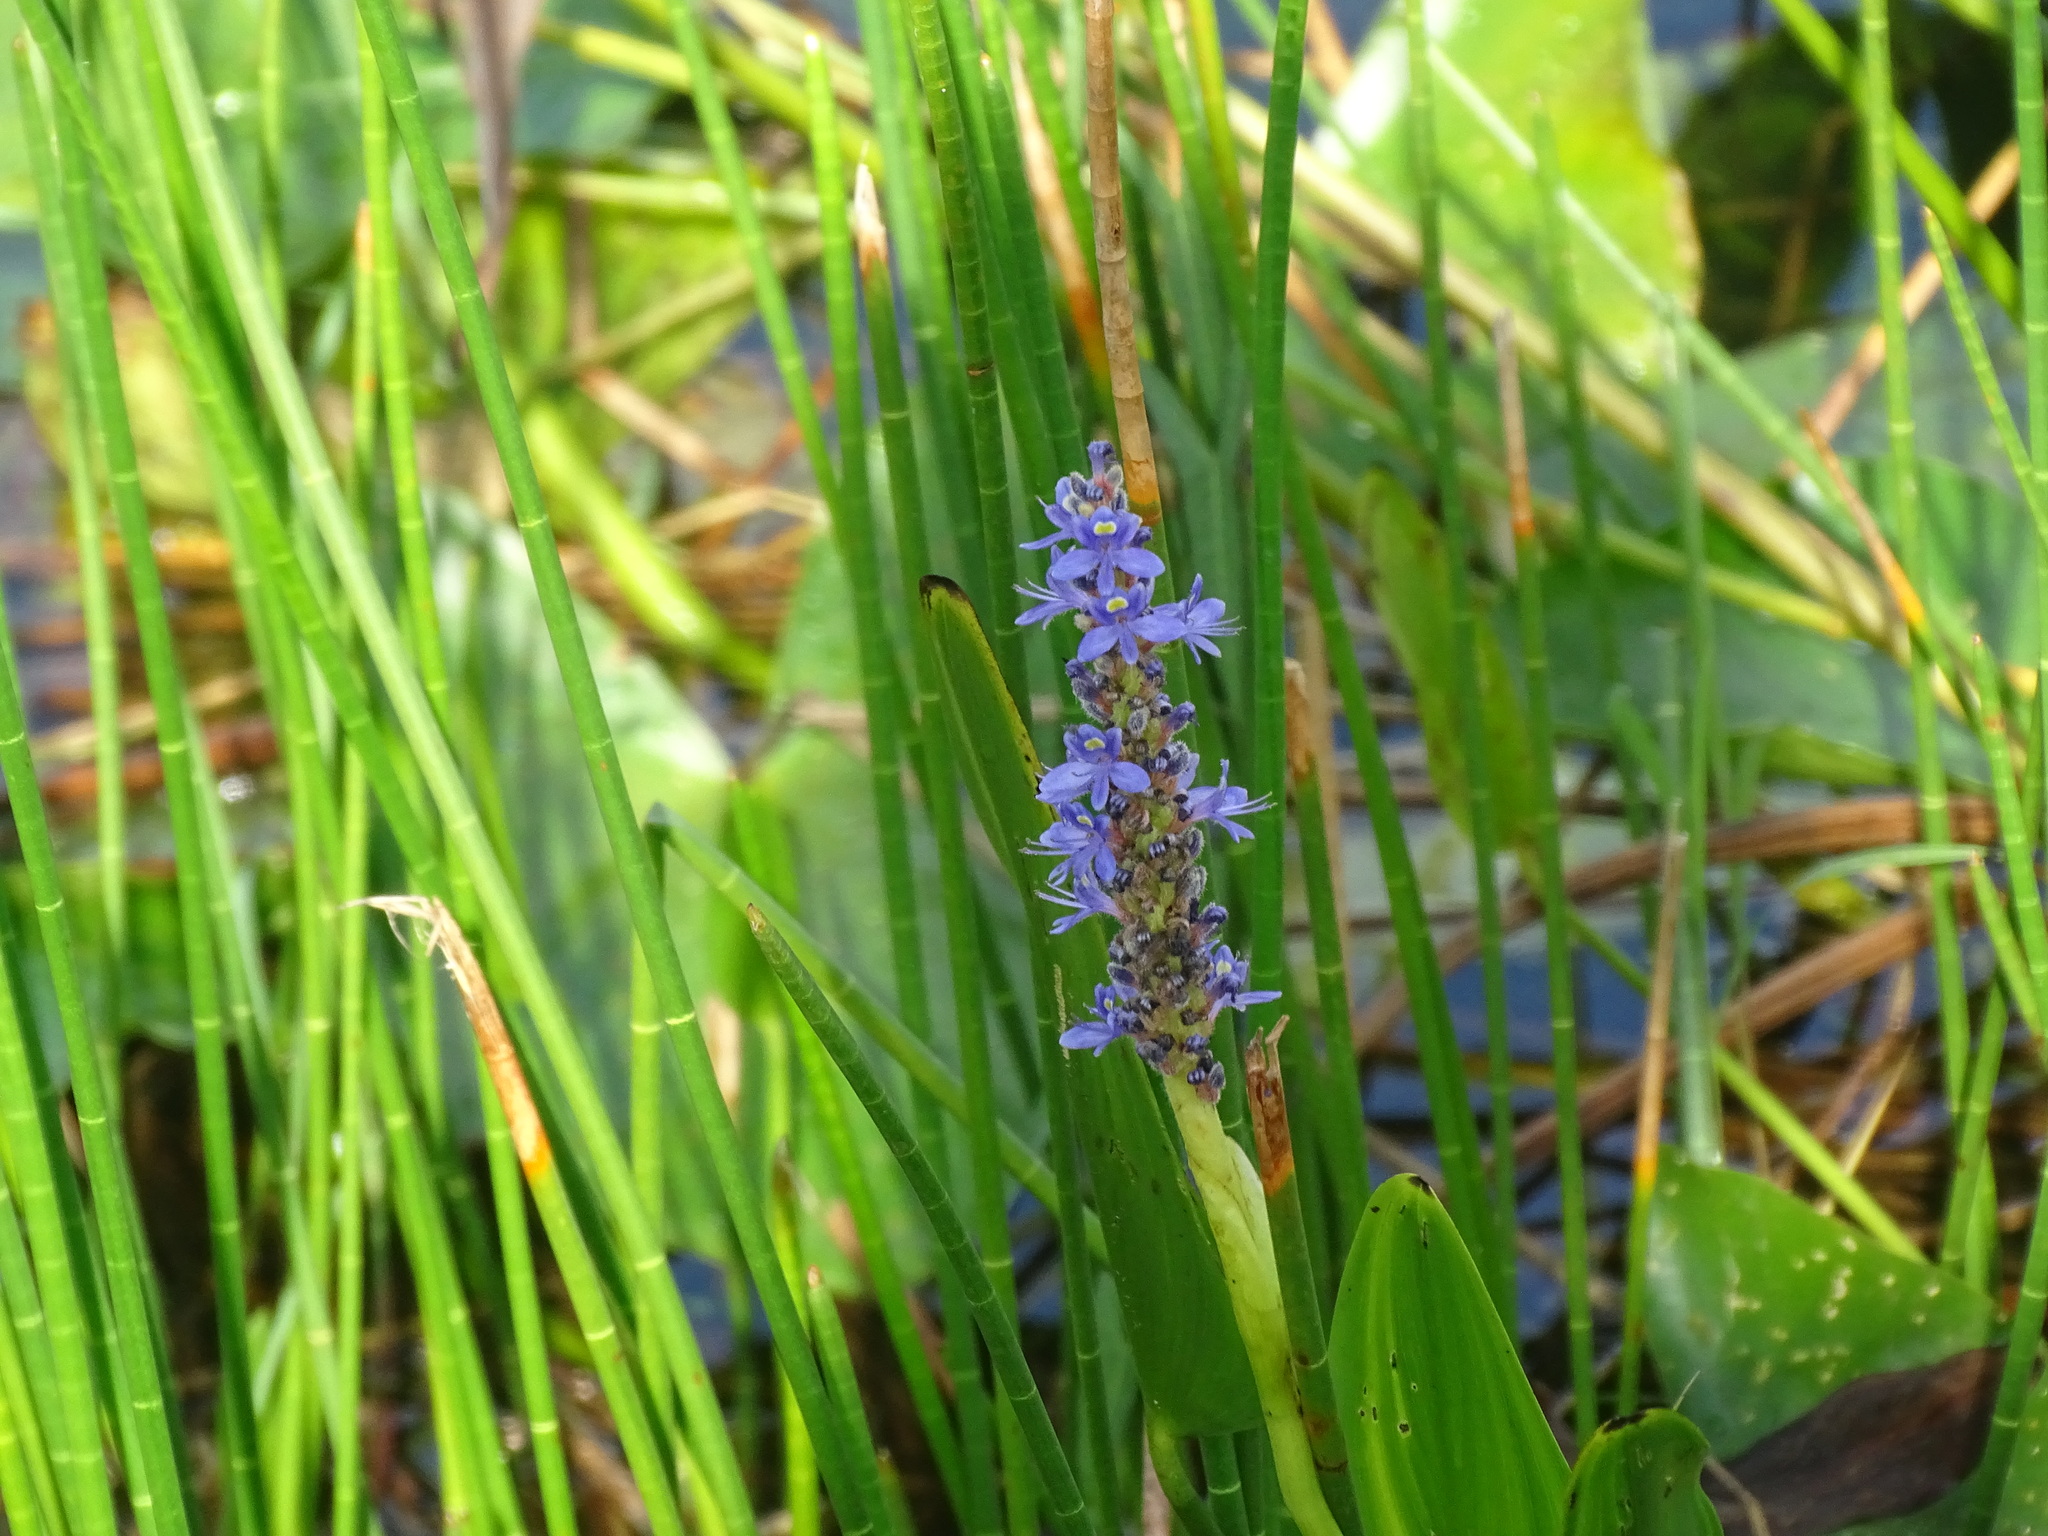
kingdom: Plantae
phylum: Tracheophyta
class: Liliopsida
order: Commelinales
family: Pontederiaceae
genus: Pontederia
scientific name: Pontederia cordata
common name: Pickerelweed
